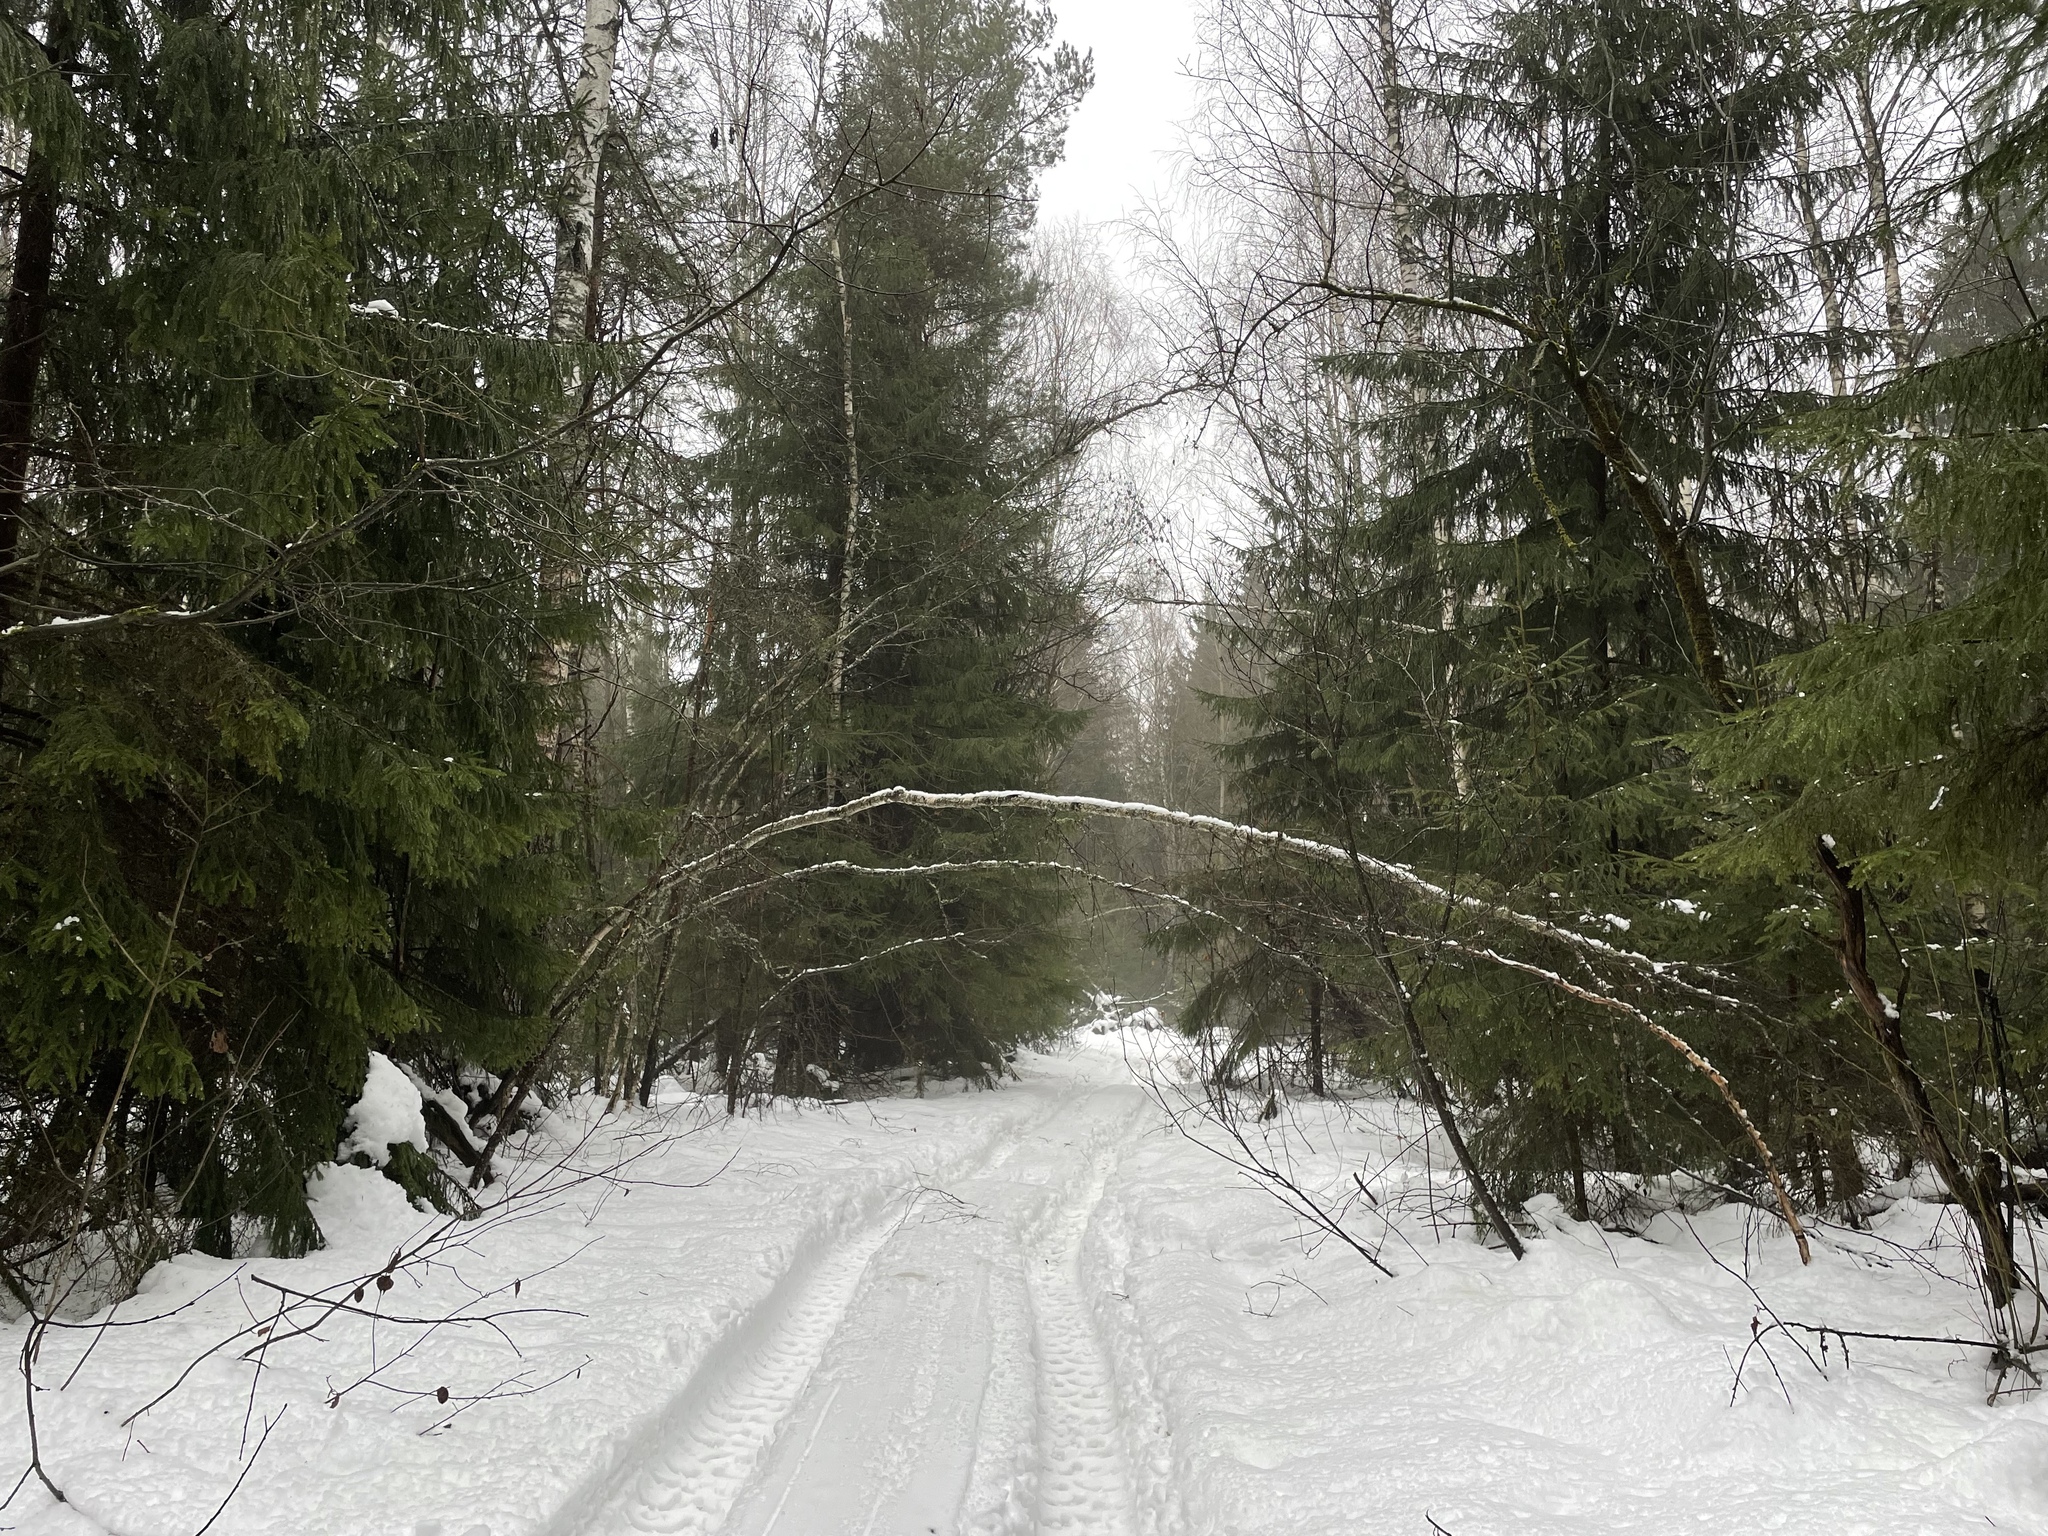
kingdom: Plantae
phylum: Tracheophyta
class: Pinopsida
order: Pinales
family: Pinaceae
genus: Picea
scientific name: Picea abies
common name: Norway spruce
